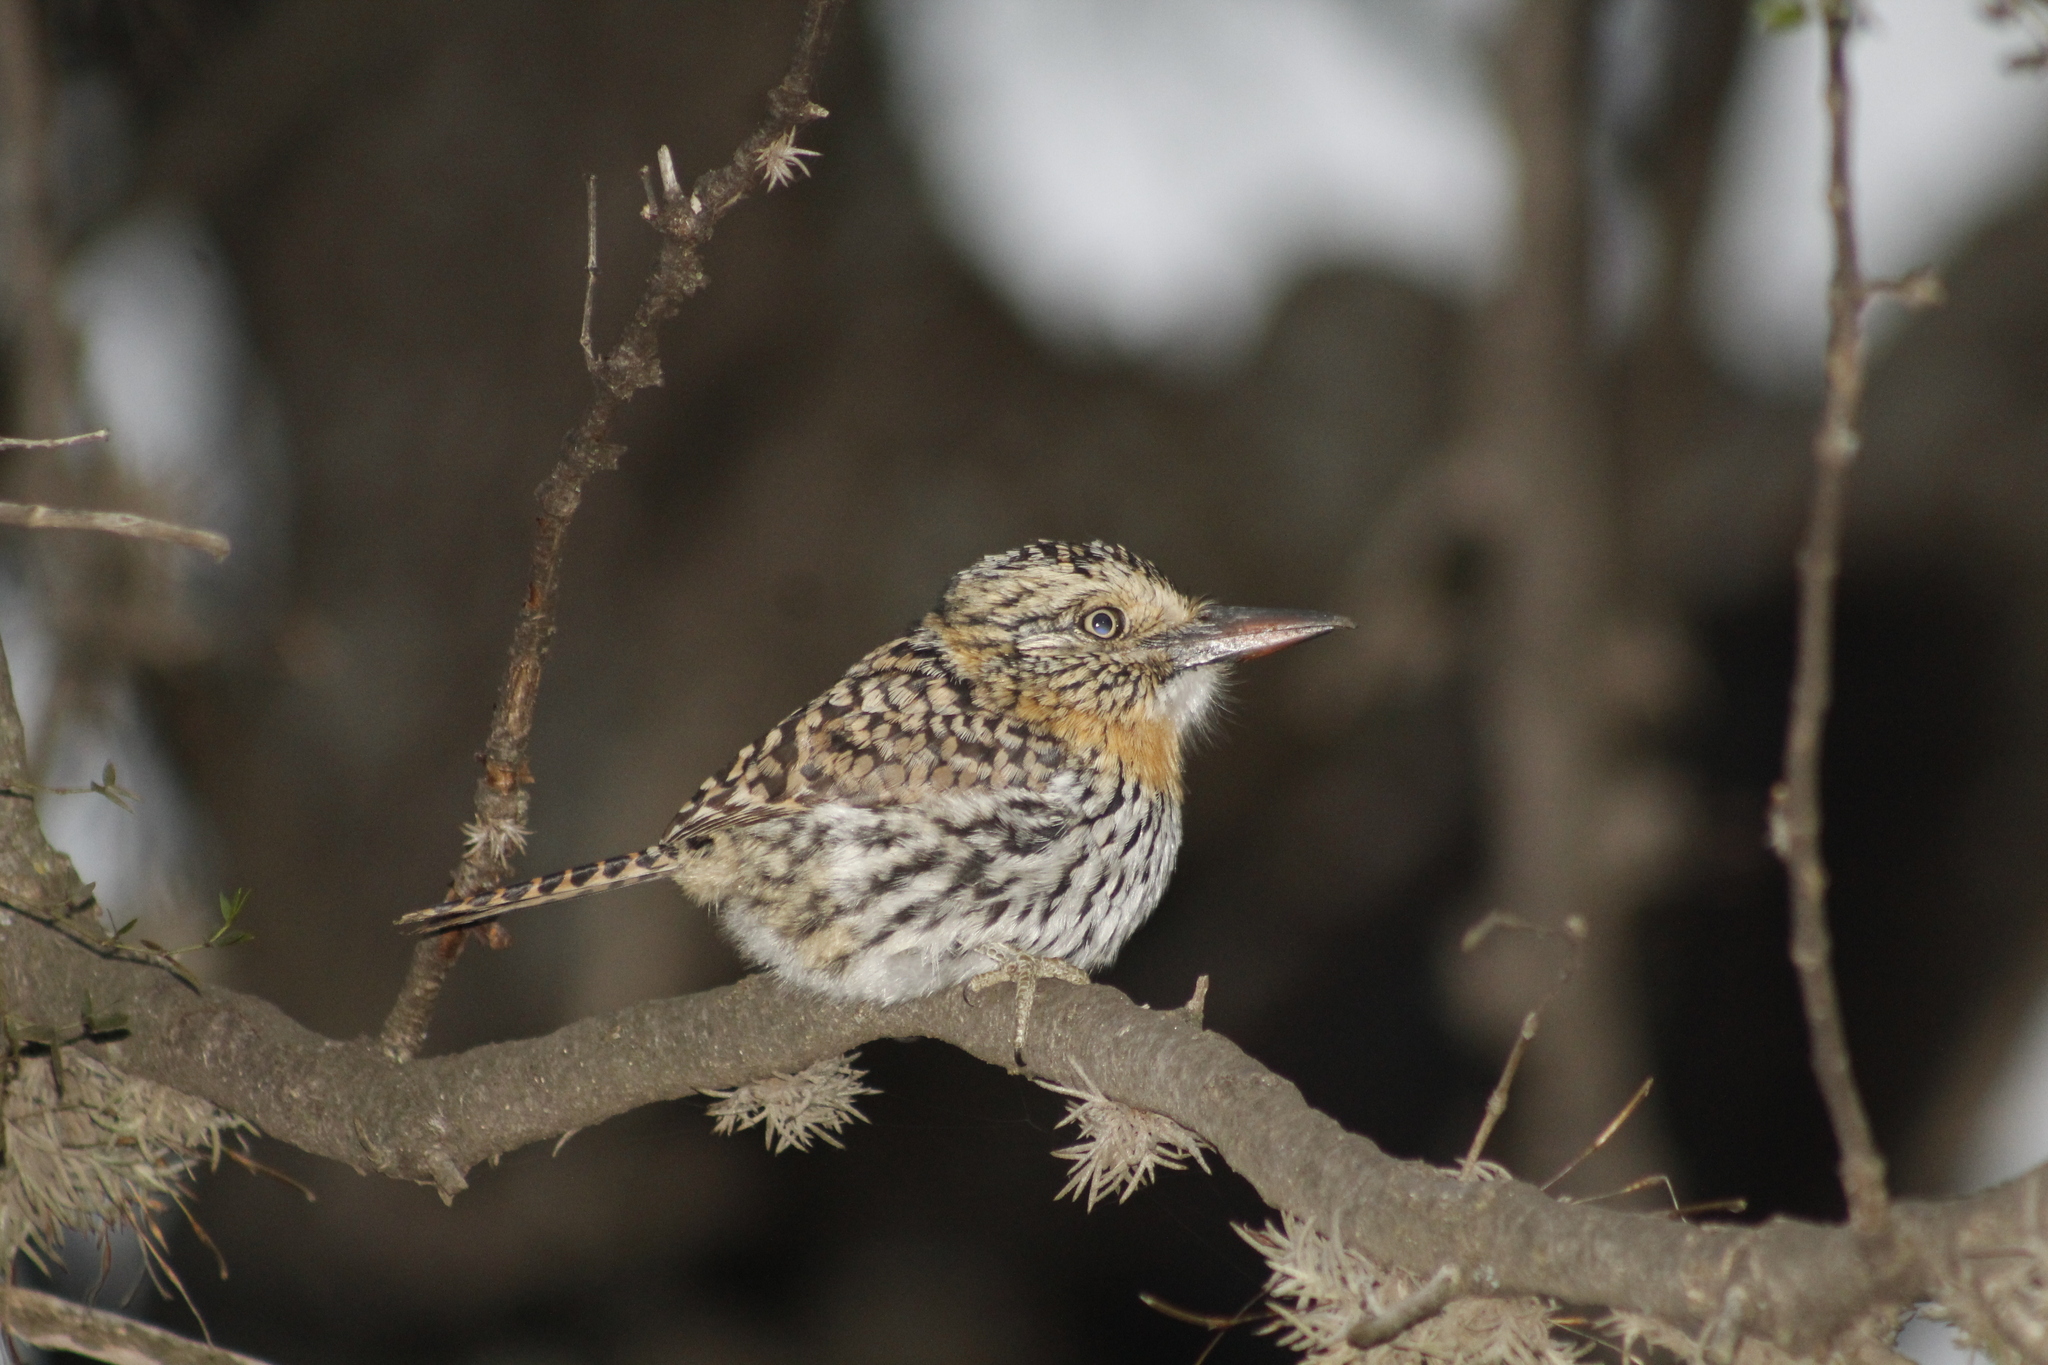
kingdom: Animalia
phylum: Chordata
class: Aves
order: Piciformes
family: Bucconidae
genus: Nystalus
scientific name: Nystalus maculatus
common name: Caatinga puffbird
